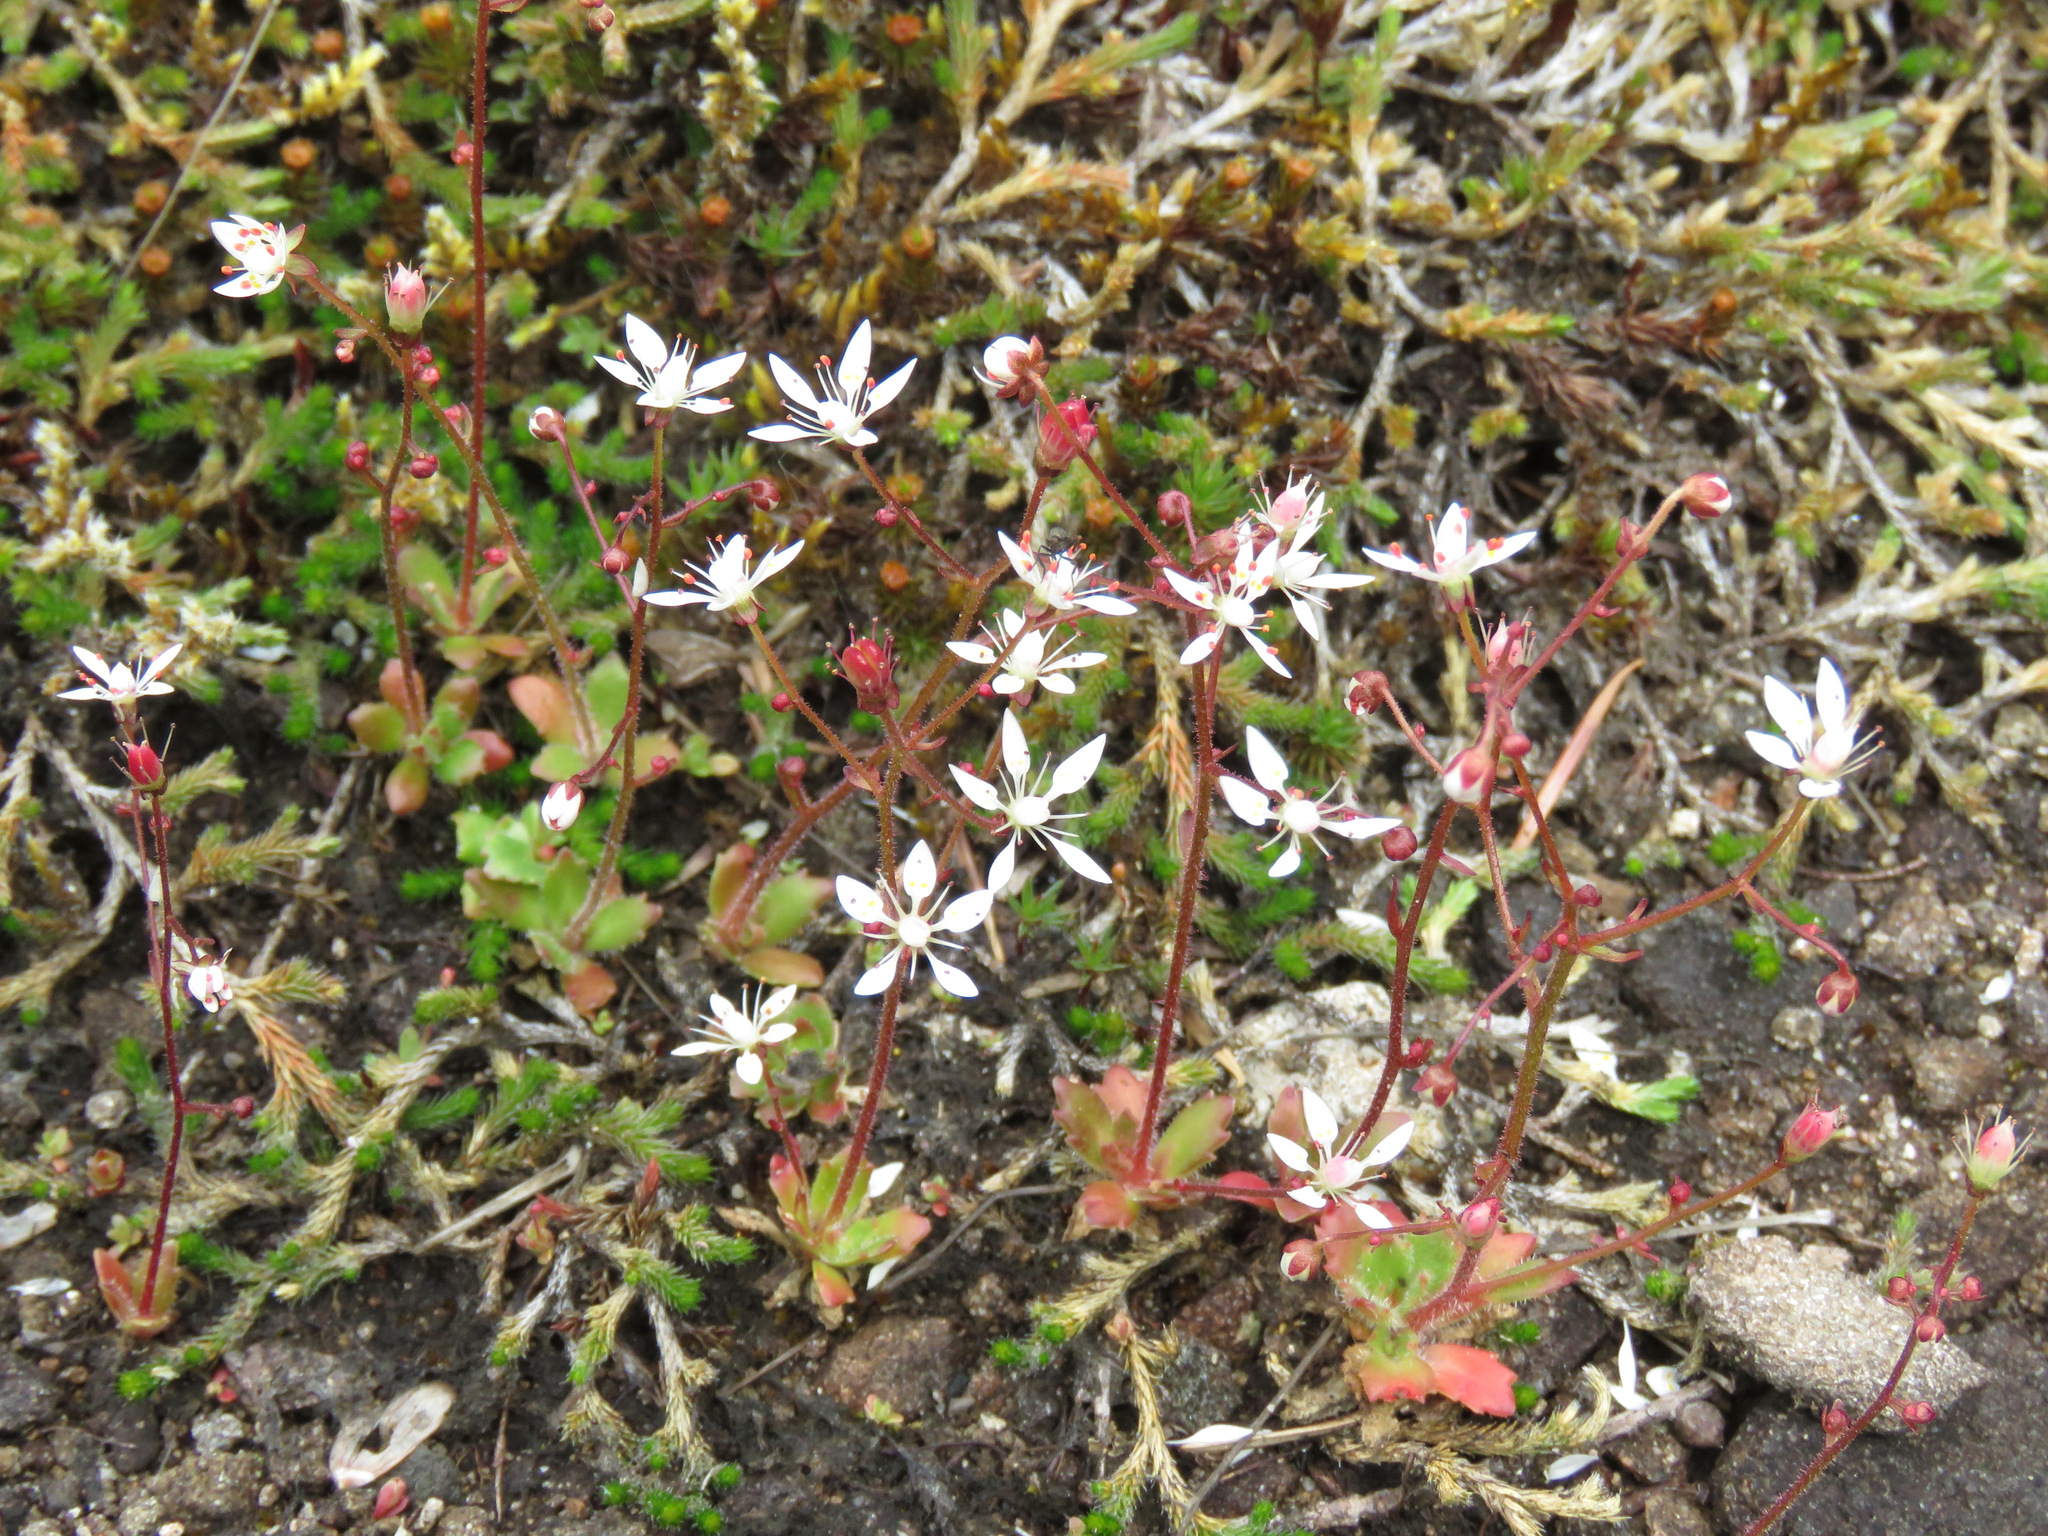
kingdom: Plantae
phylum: Tracheophyta
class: Magnoliopsida
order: Saxifragales
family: Saxifragaceae
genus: Micranthes
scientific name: Micranthes ferruginea
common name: Rusty saxifrage
